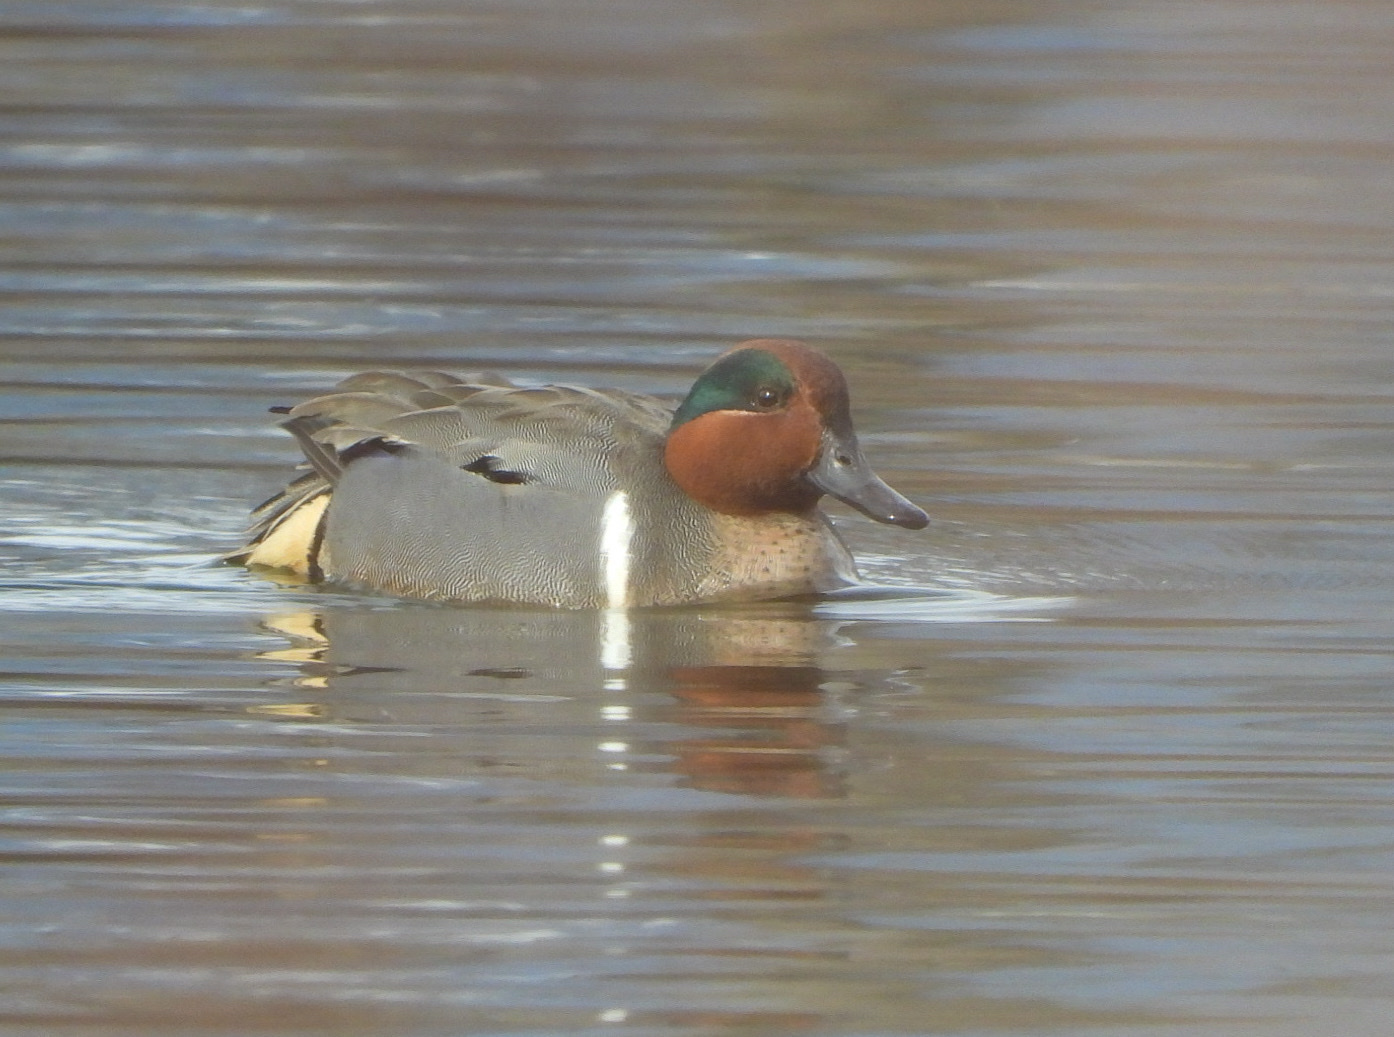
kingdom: Animalia
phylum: Chordata
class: Aves
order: Anseriformes
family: Anatidae
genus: Anas
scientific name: Anas carolinensis
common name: Green-winged teal
